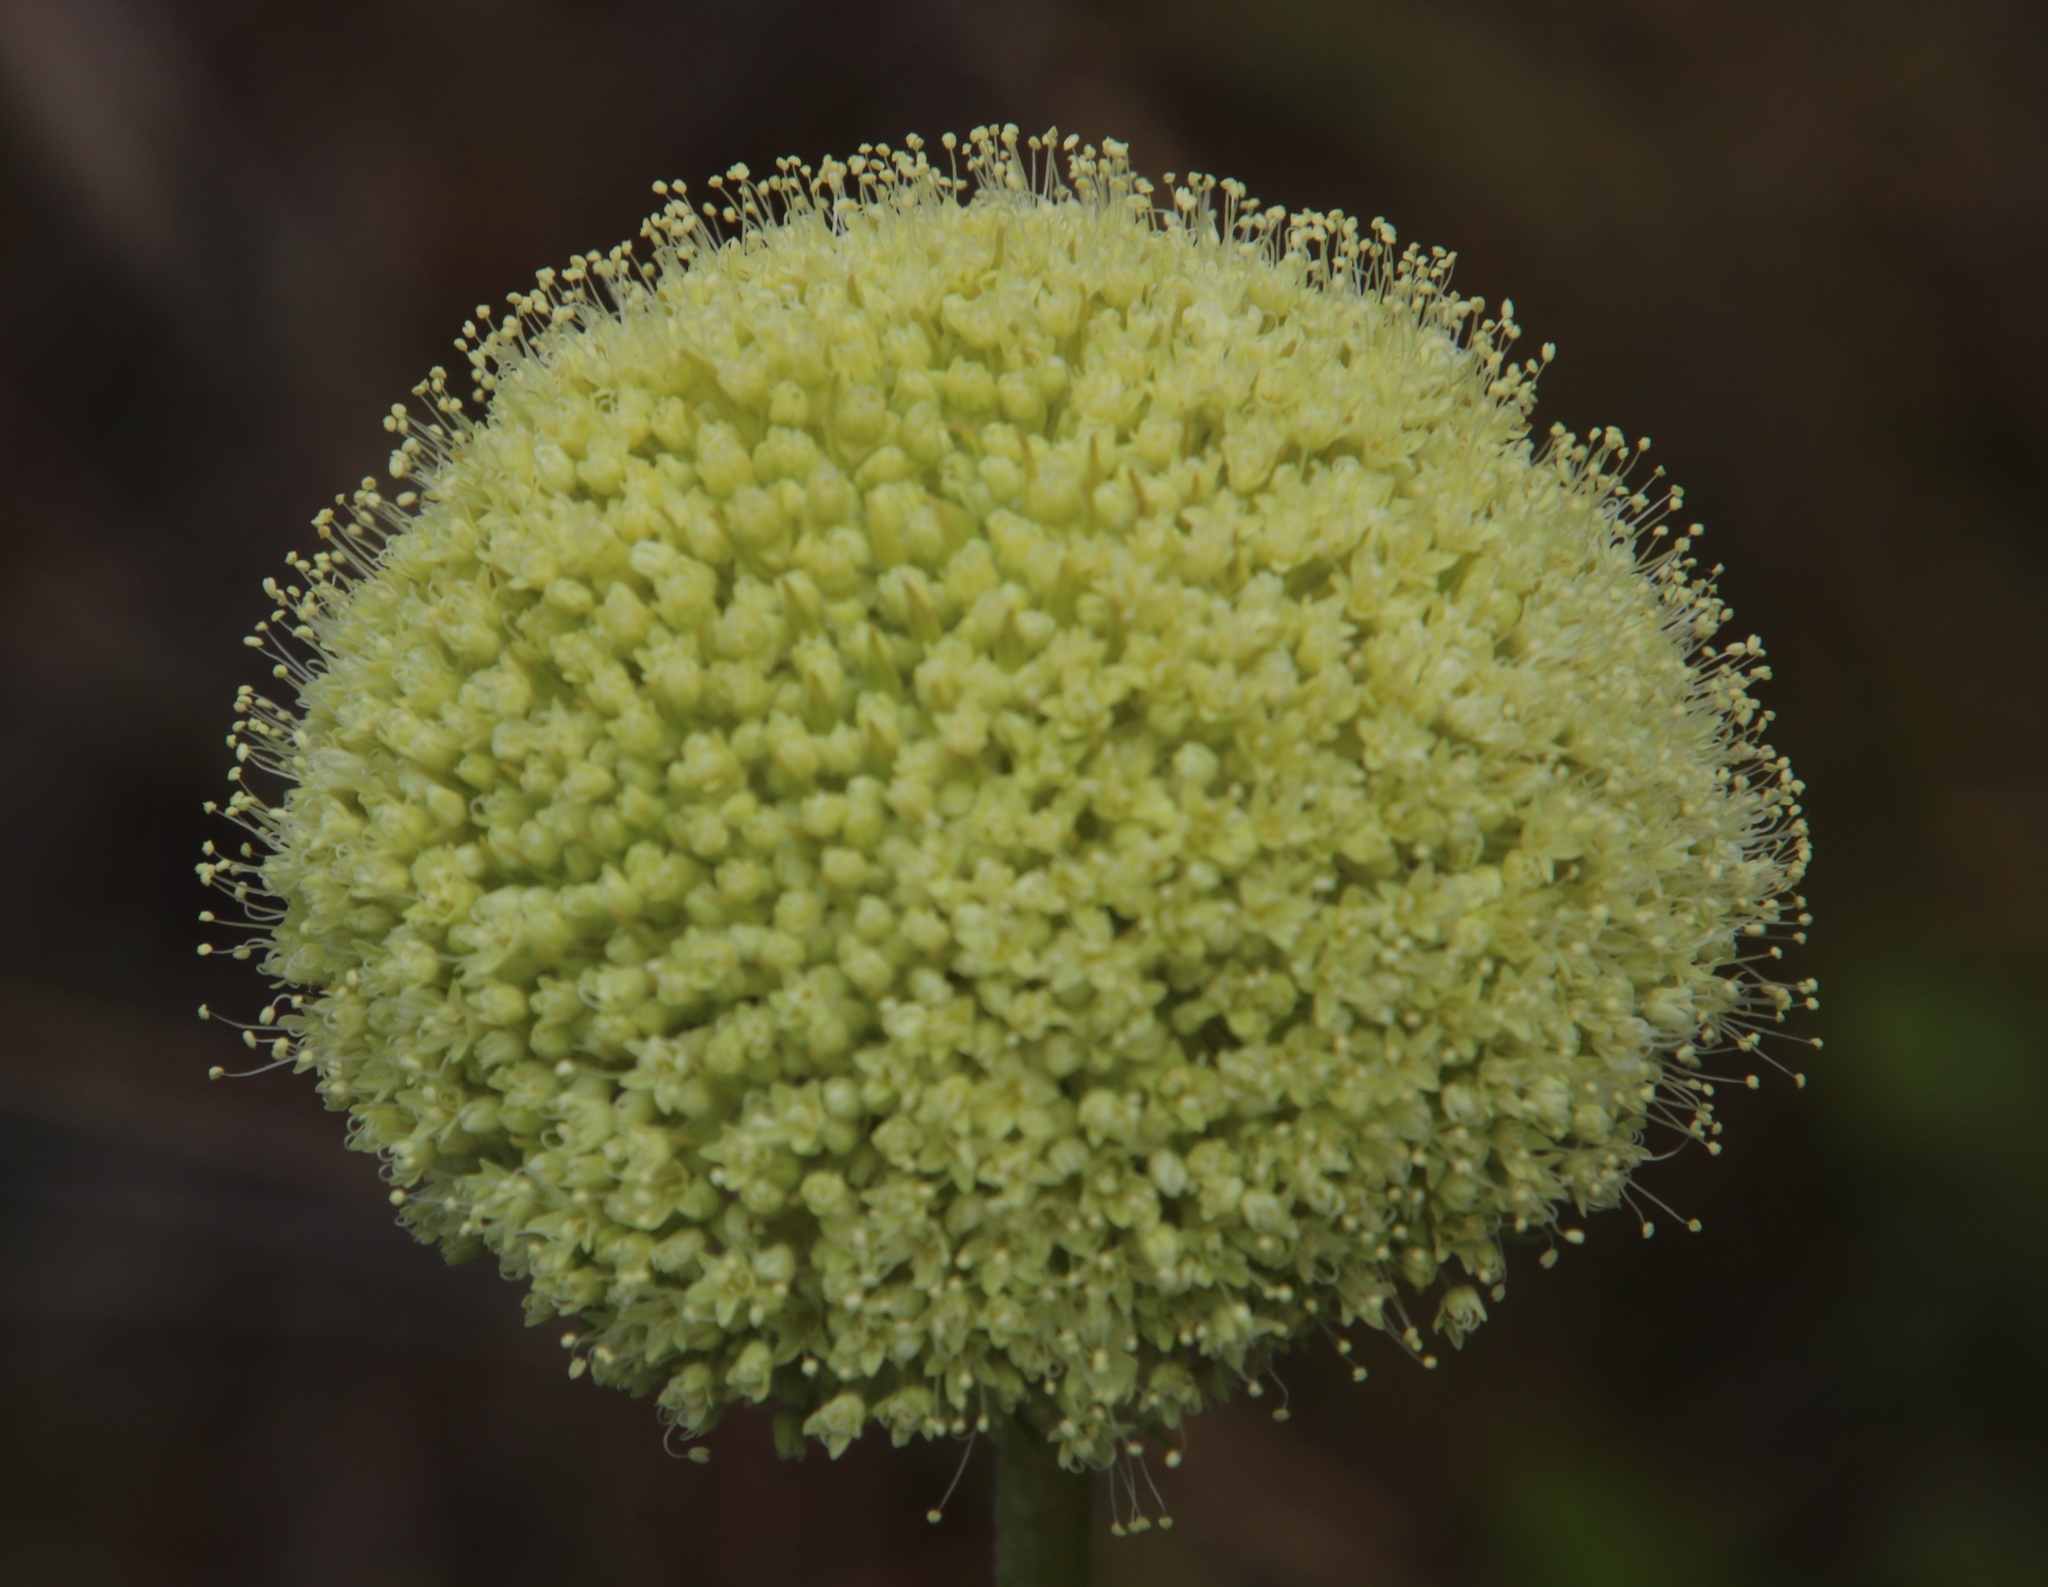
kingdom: Plantae
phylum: Tracheophyta
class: Magnoliopsida
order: Apiales
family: Apiaceae
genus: Hermas
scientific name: Hermas villosa
